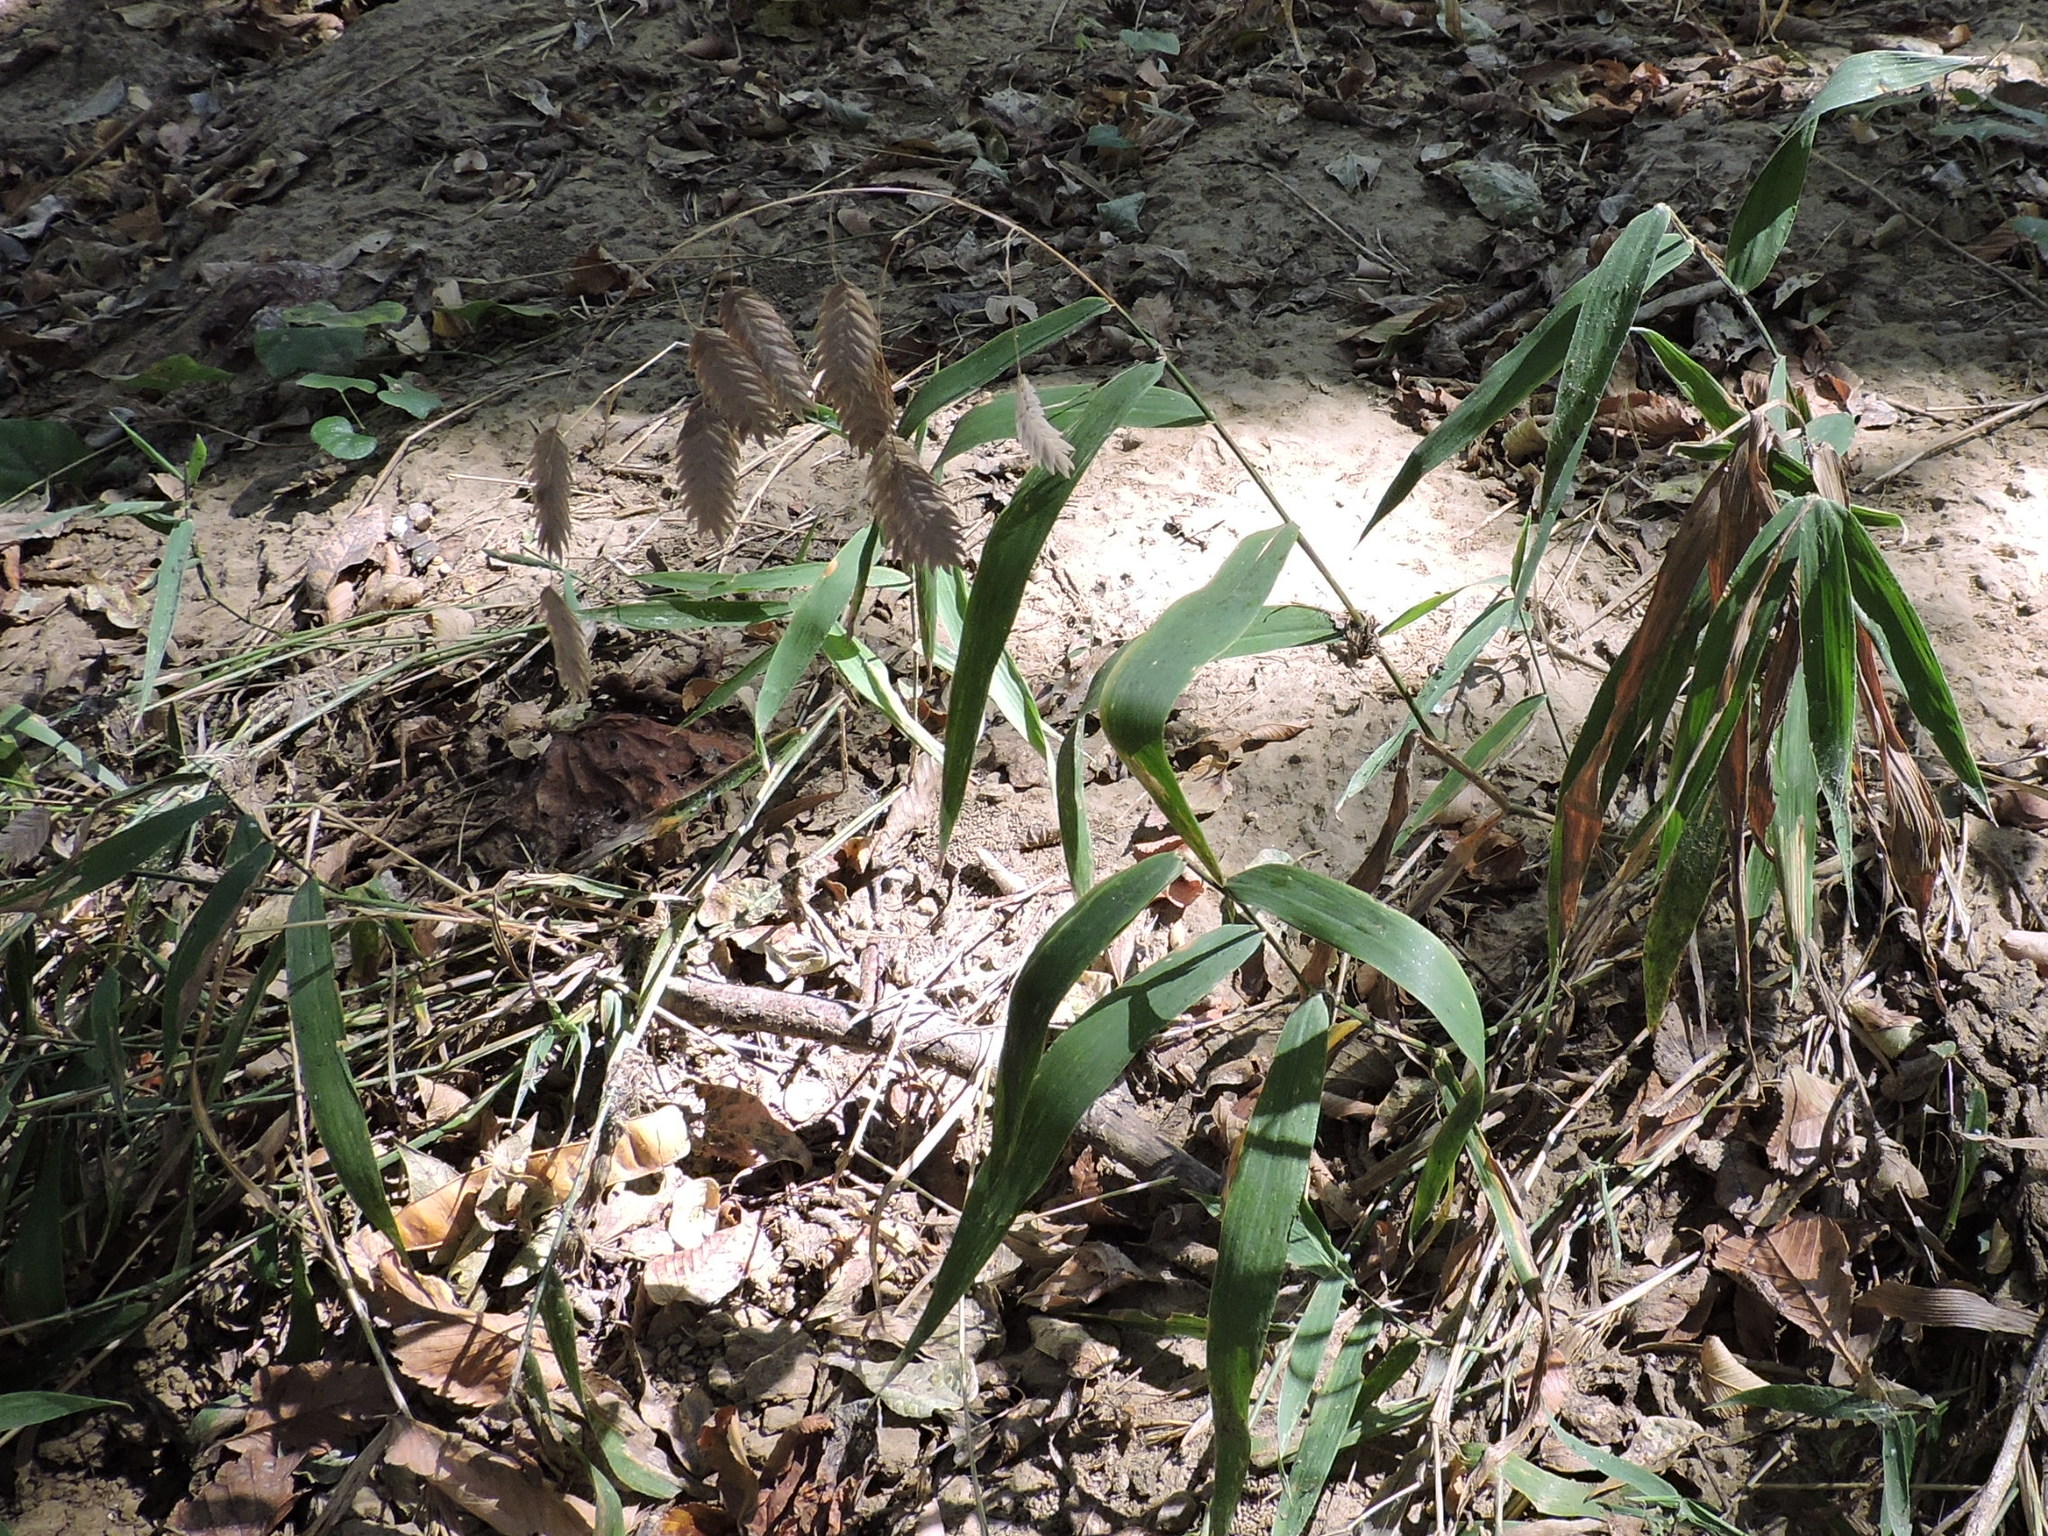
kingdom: Plantae
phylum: Tracheophyta
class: Liliopsida
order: Poales
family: Poaceae
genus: Chasmanthium
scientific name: Chasmanthium latifolium
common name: Broad-leaved chasmanthium
